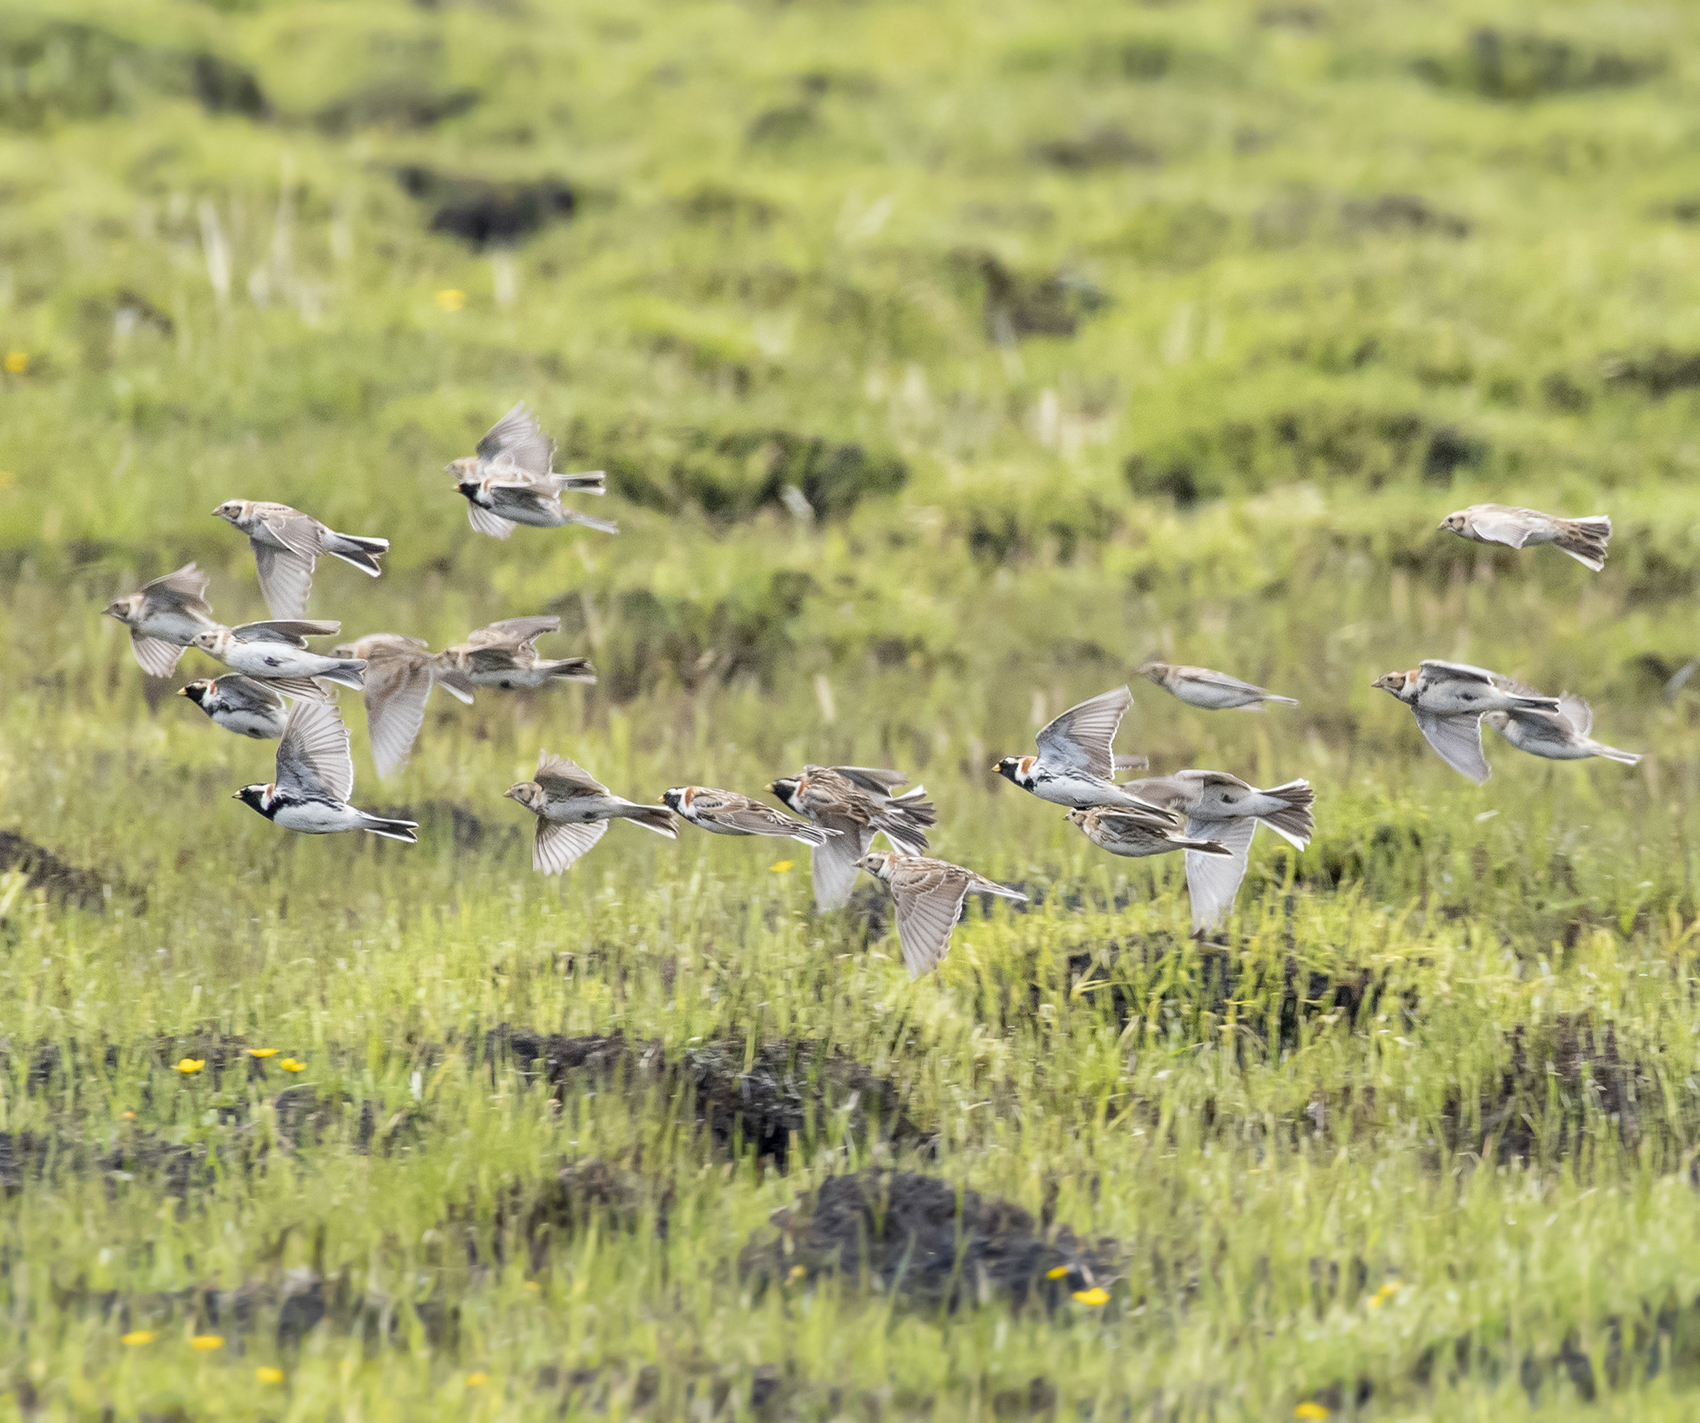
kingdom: Animalia
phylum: Chordata
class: Aves
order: Passeriformes
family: Calcariidae
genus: Calcarius
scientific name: Calcarius lapponicus
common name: Lapland longspur
